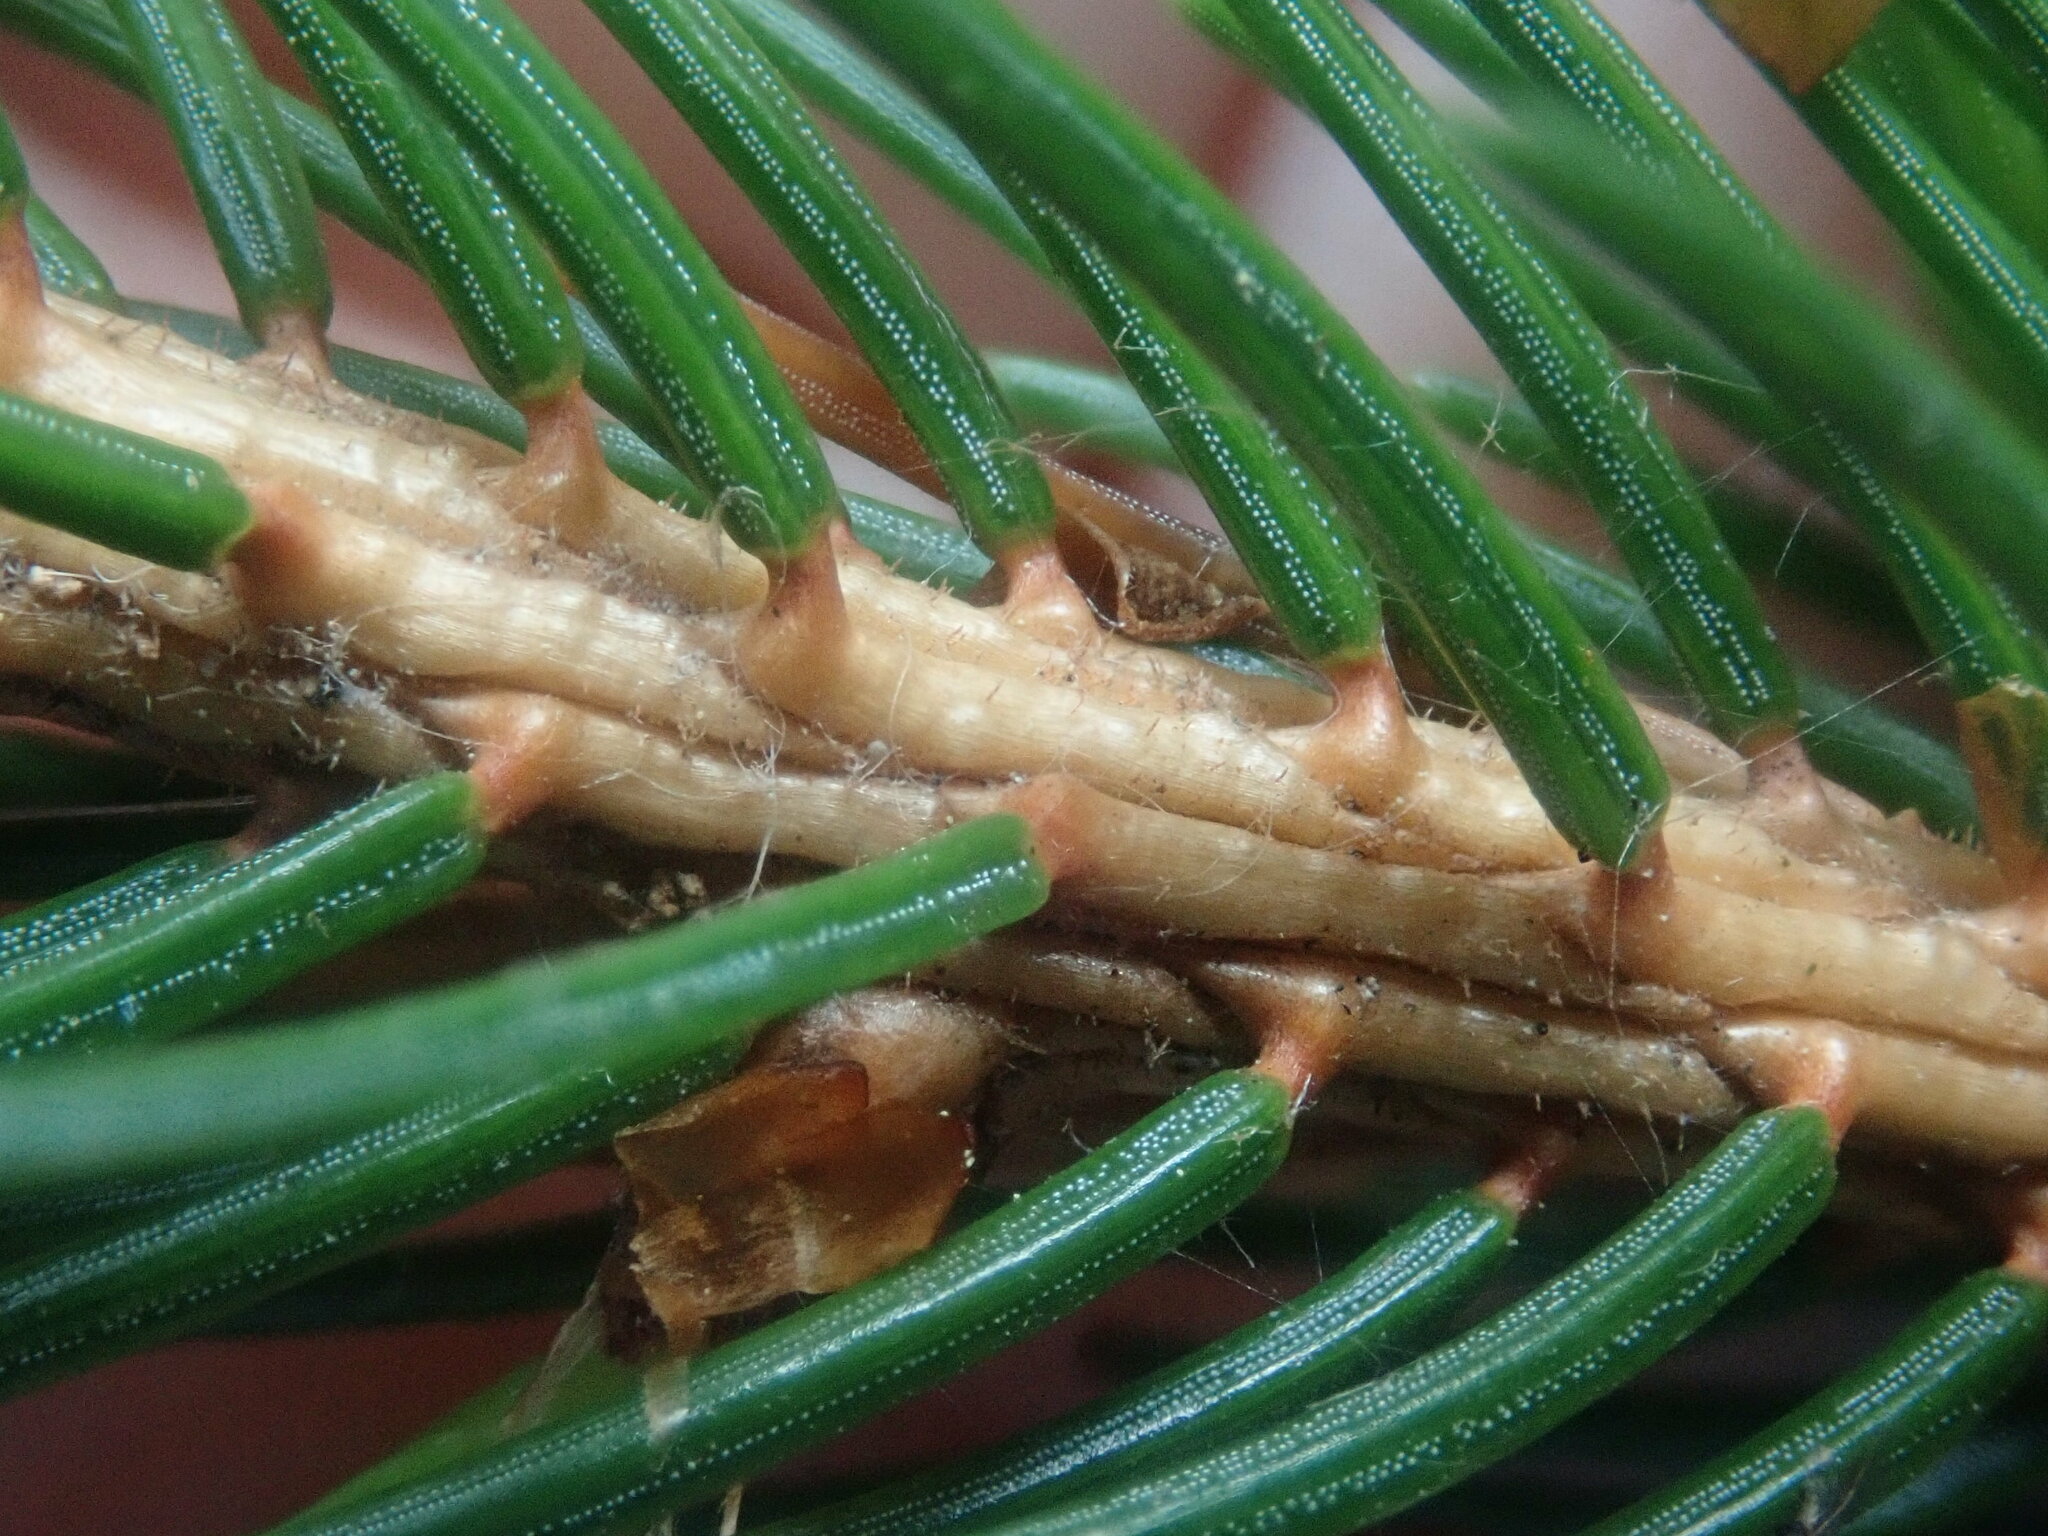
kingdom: Plantae
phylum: Tracheophyta
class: Pinopsida
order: Pinales
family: Pinaceae
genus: Picea
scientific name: Picea rubens
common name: Red spruce
